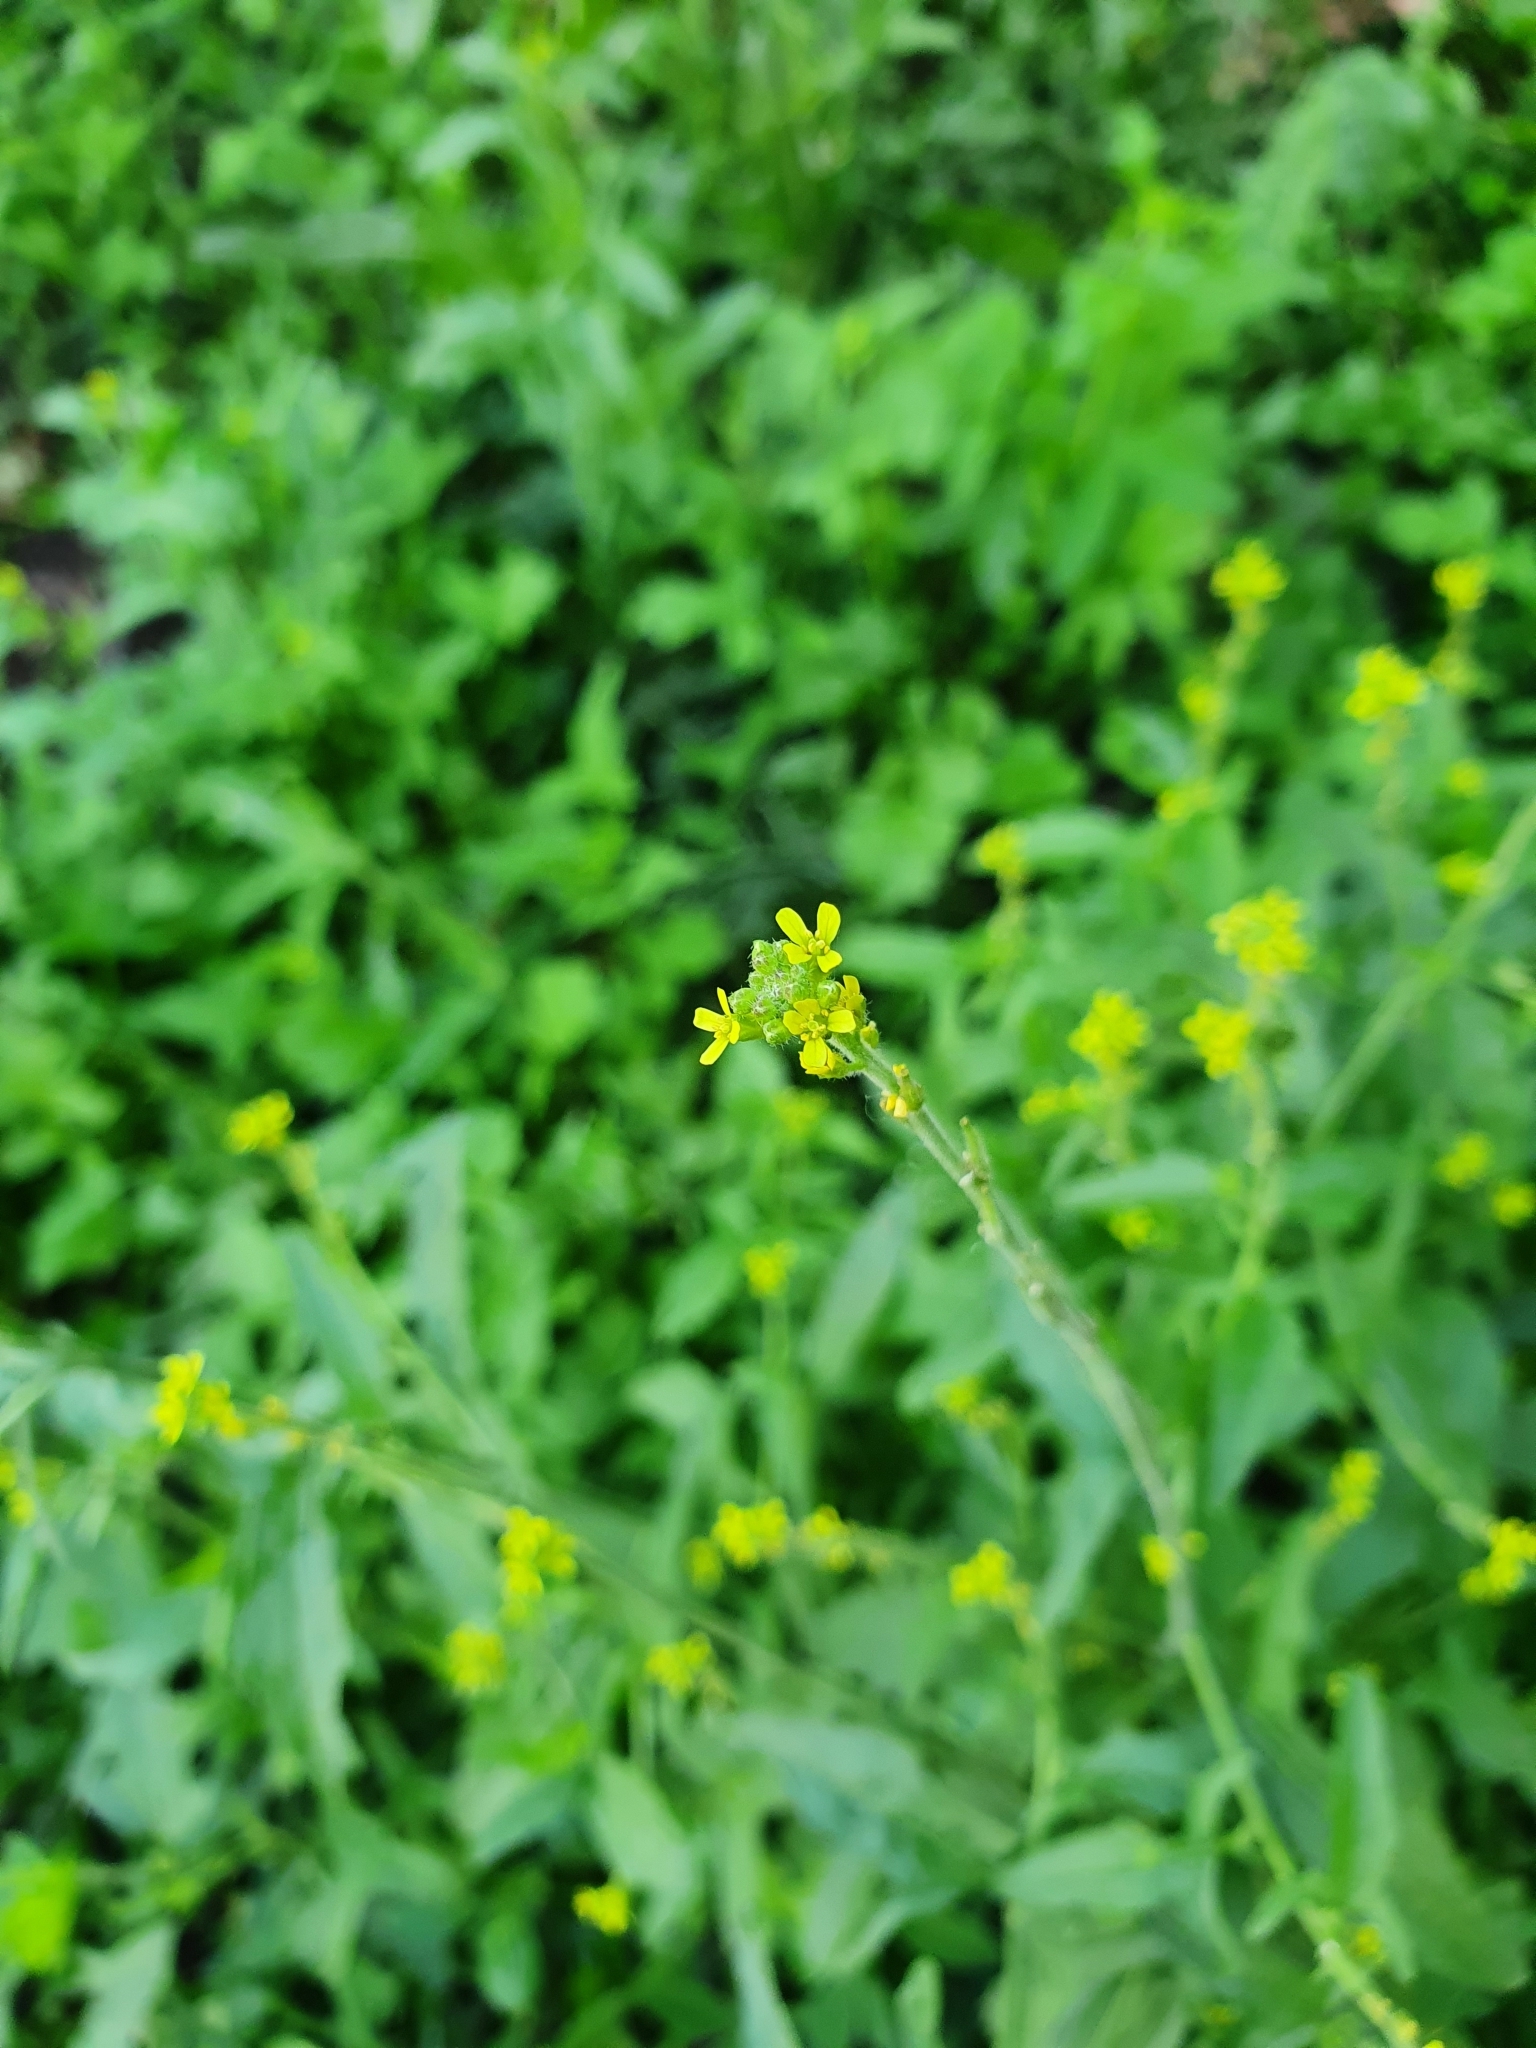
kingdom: Plantae
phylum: Tracheophyta
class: Magnoliopsida
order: Brassicales
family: Brassicaceae
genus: Sisymbrium
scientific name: Sisymbrium officinale
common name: Hedge mustard
